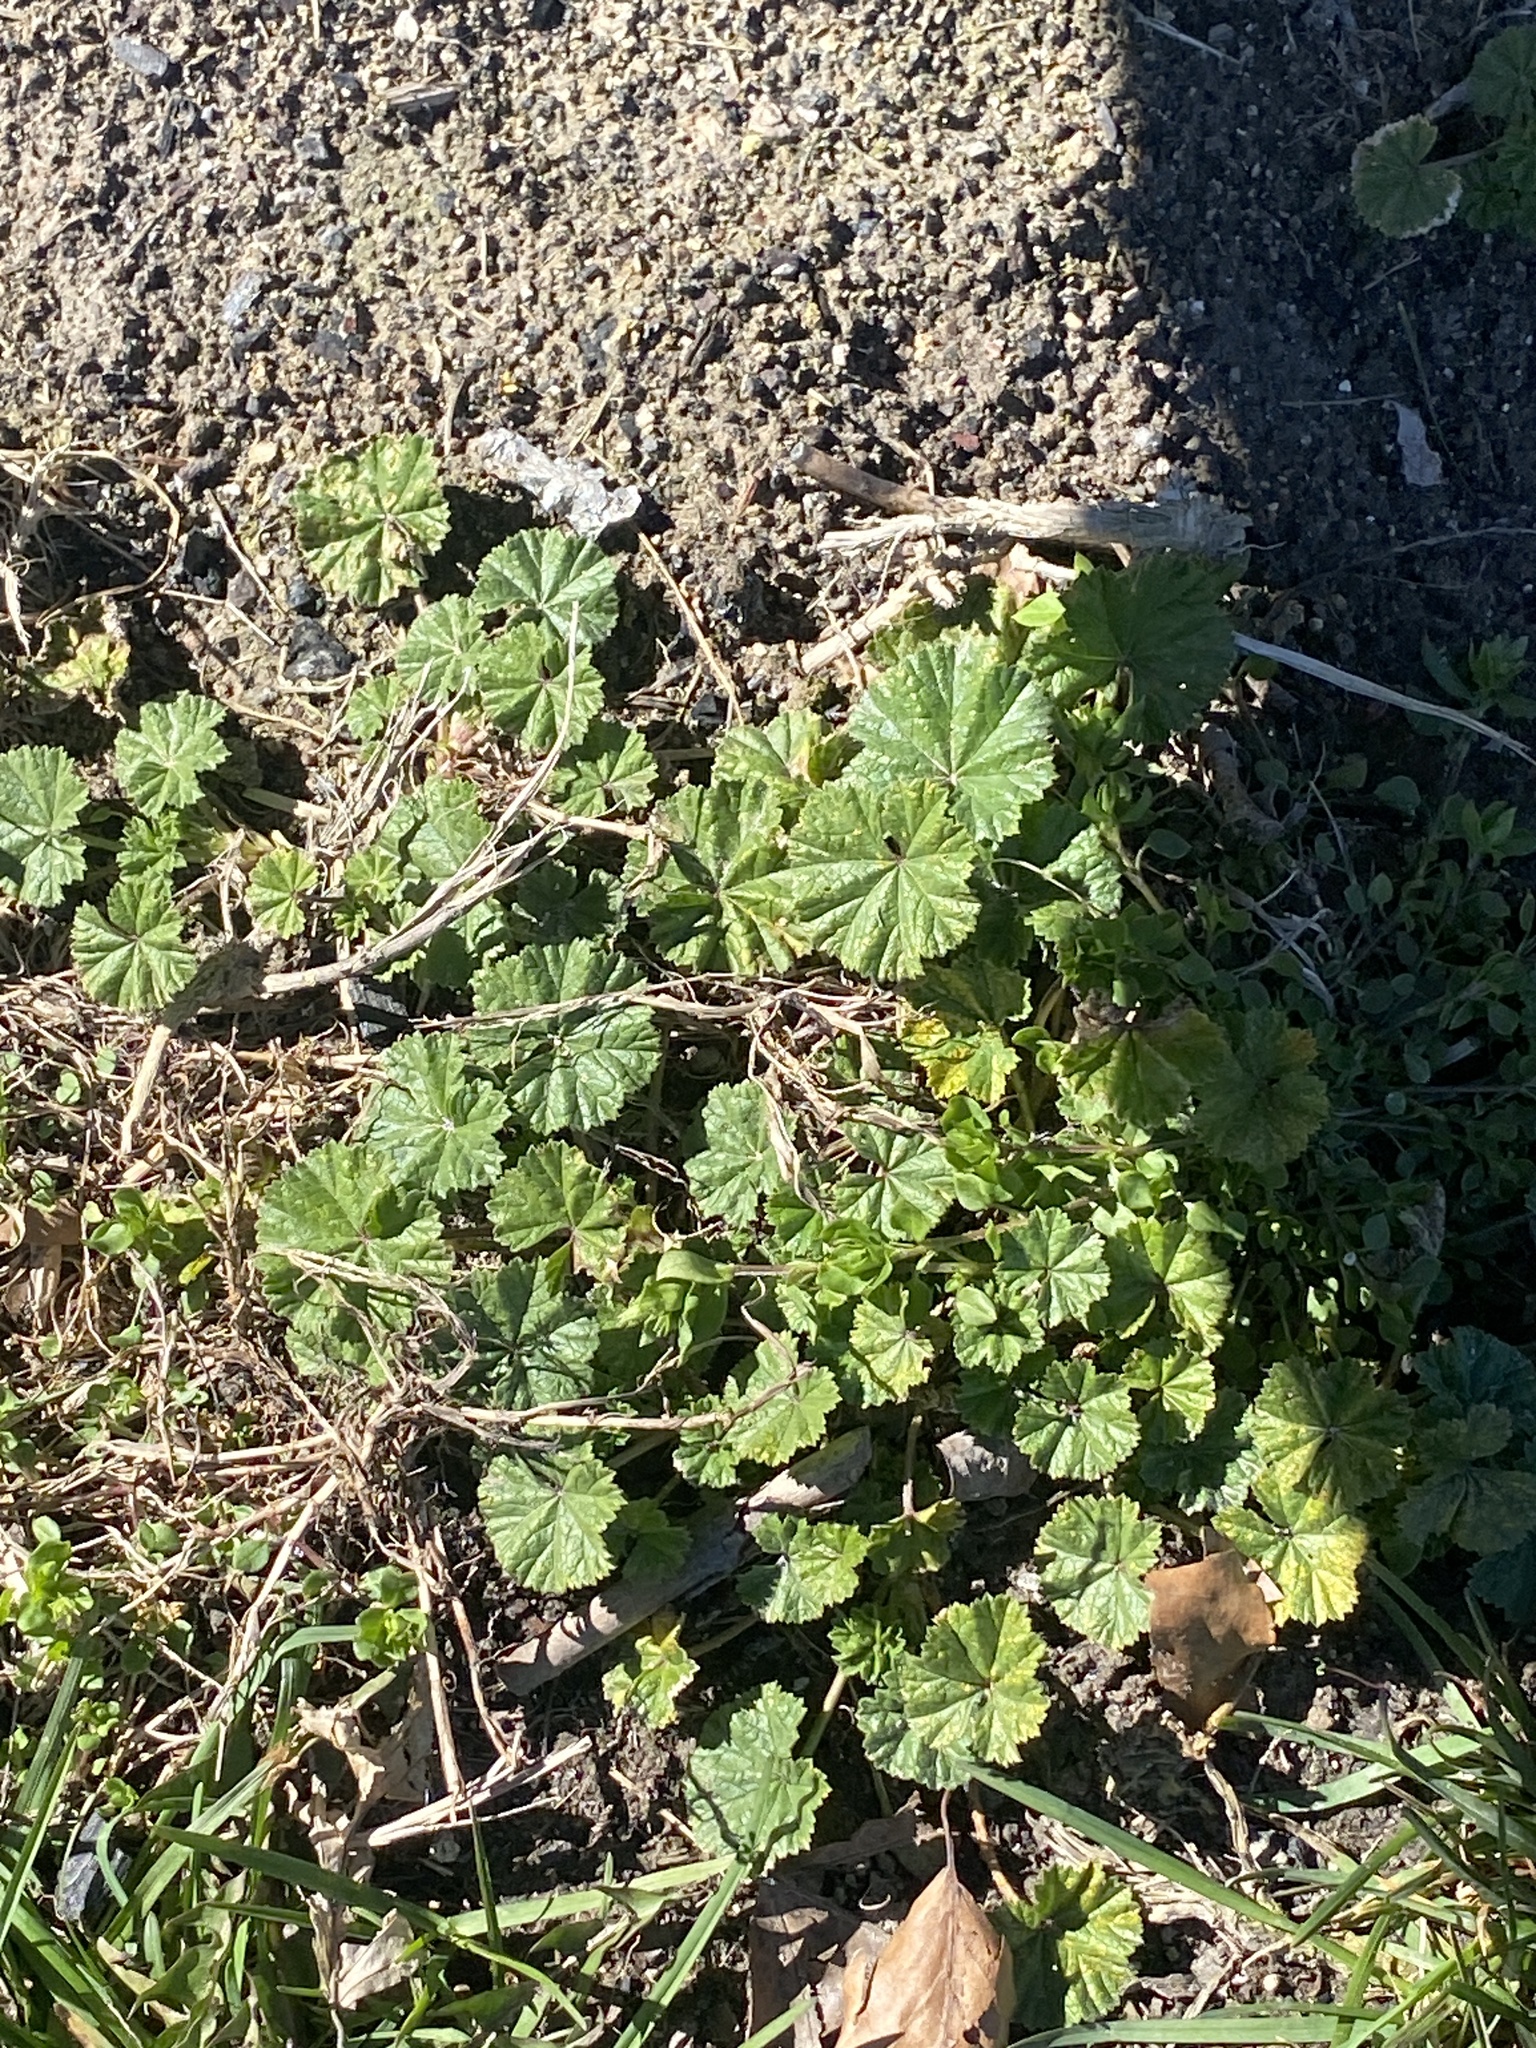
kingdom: Plantae
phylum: Tracheophyta
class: Magnoliopsida
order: Malvales
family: Malvaceae
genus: Malva
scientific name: Malva neglecta
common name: Common mallow
